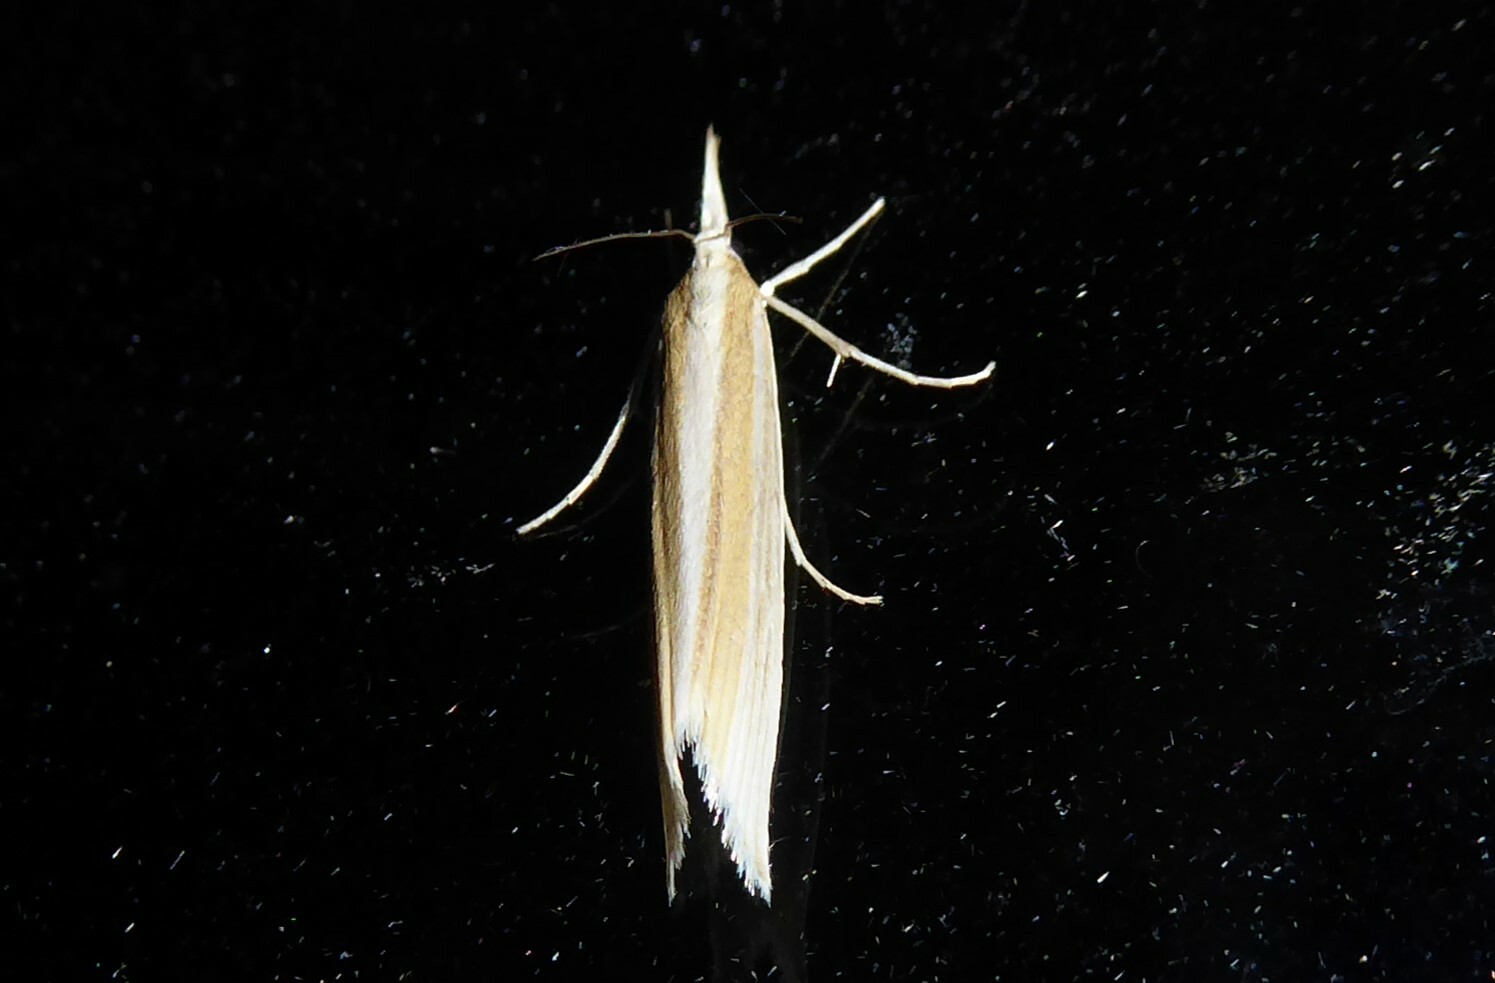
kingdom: Animalia
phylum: Arthropoda
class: Insecta
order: Lepidoptera
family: Crambidae
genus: Orocrambus
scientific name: Orocrambus angustipennis
